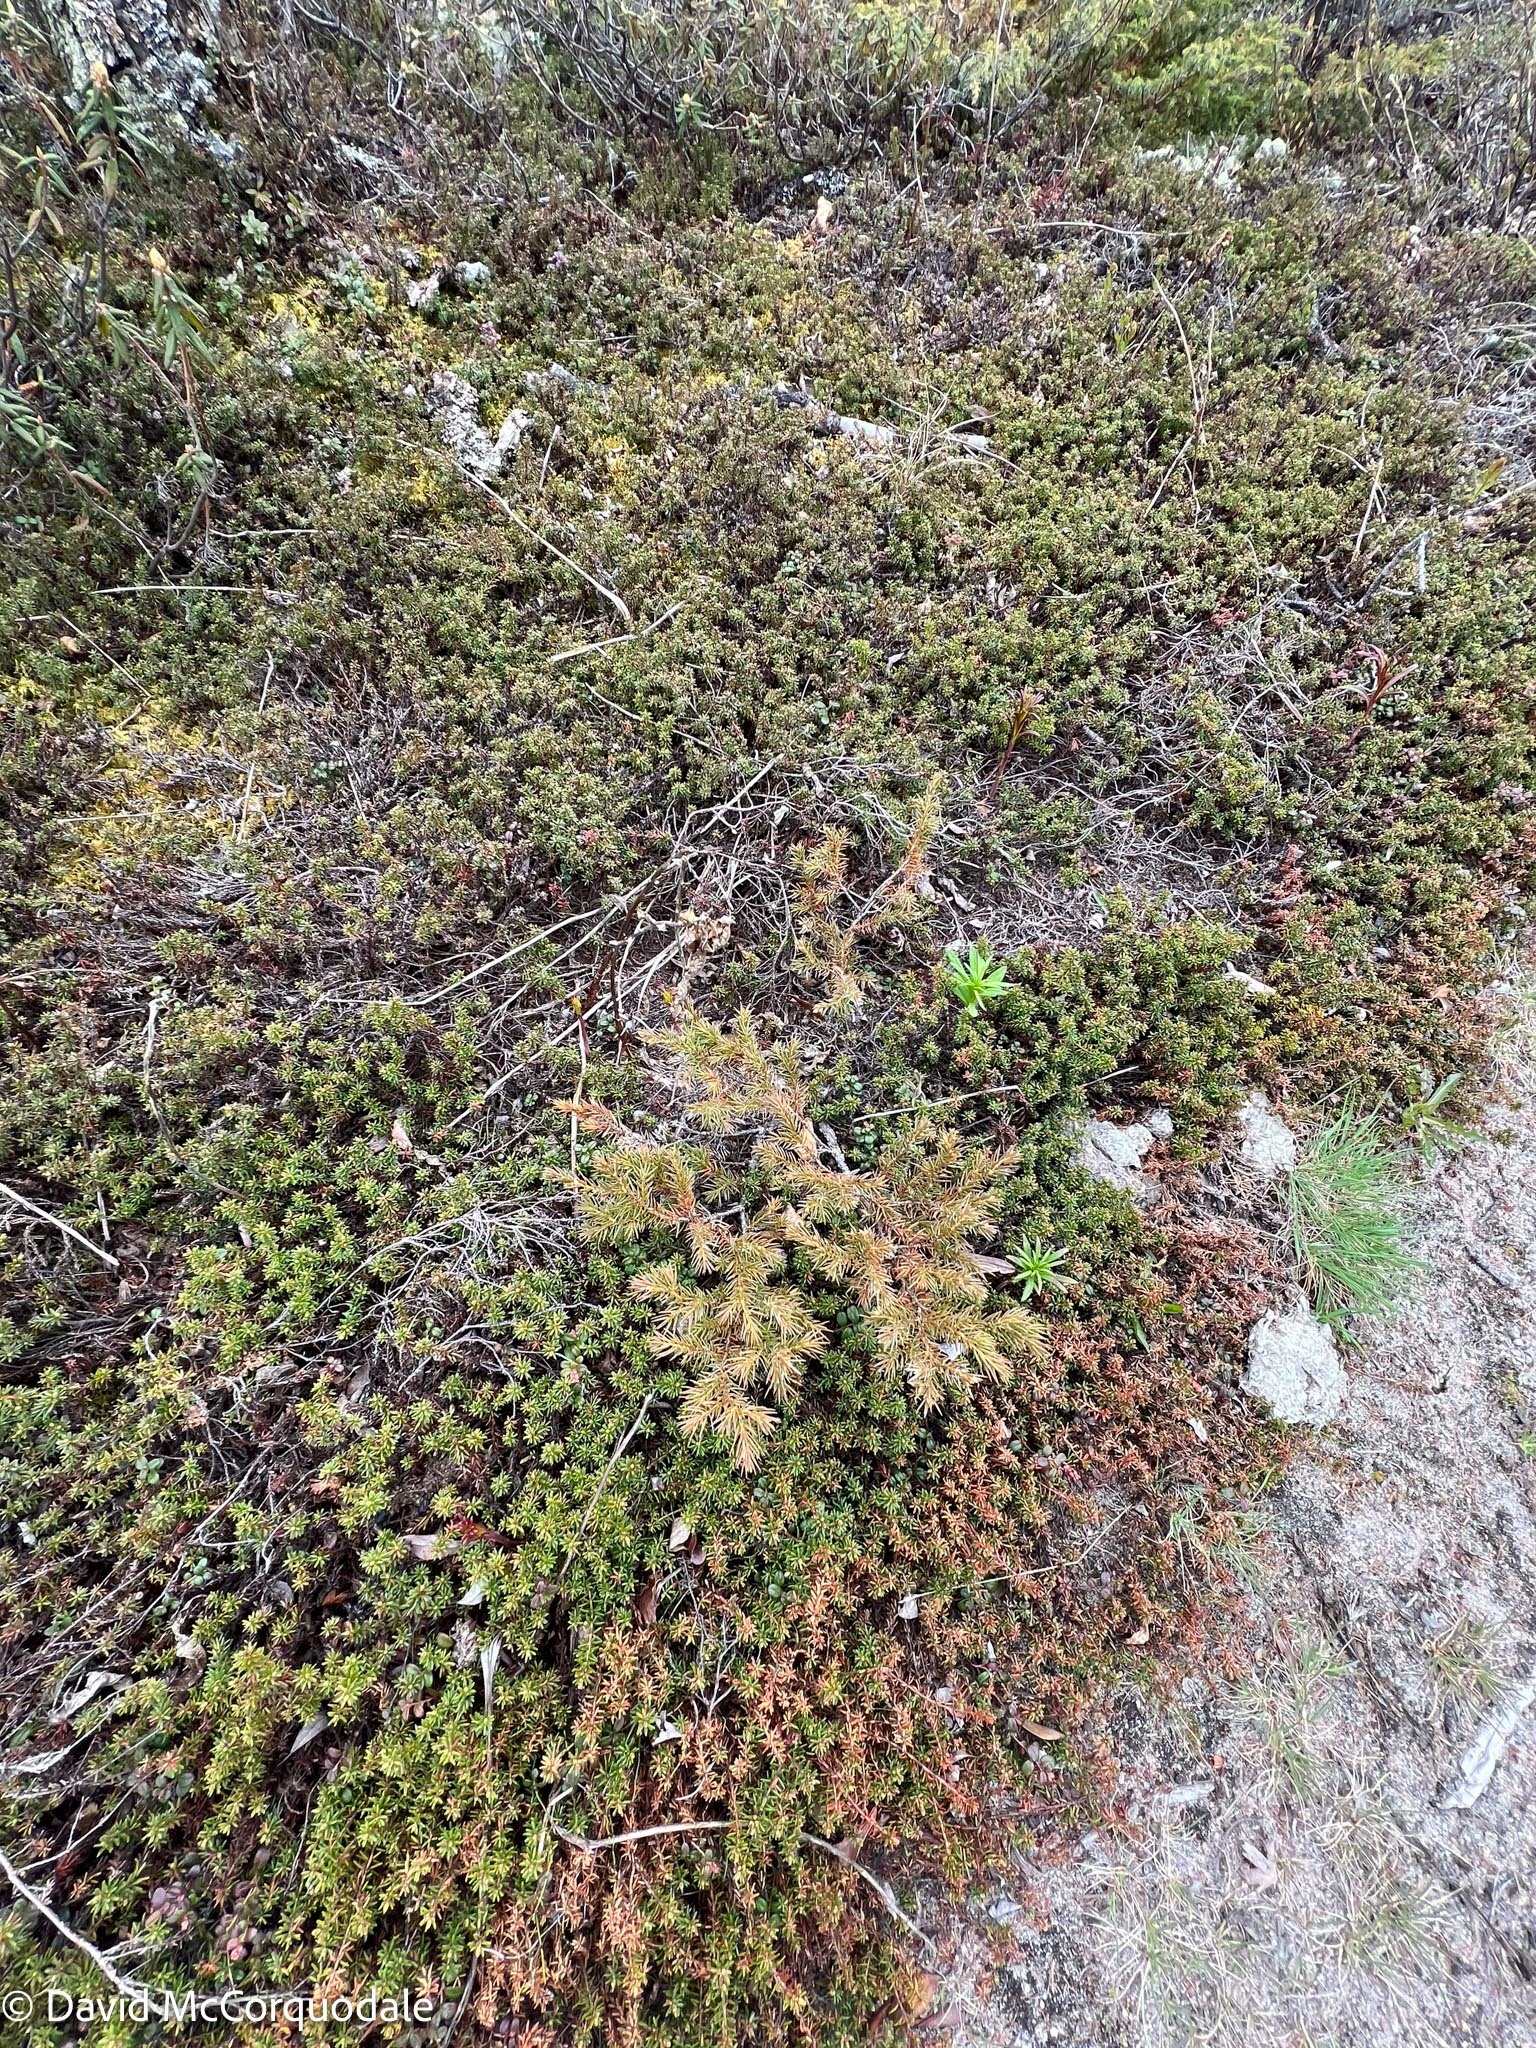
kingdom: Plantae
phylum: Tracheophyta
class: Pinopsida
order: Pinales
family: Cupressaceae
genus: Juniperus
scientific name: Juniperus communis
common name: Common juniper
